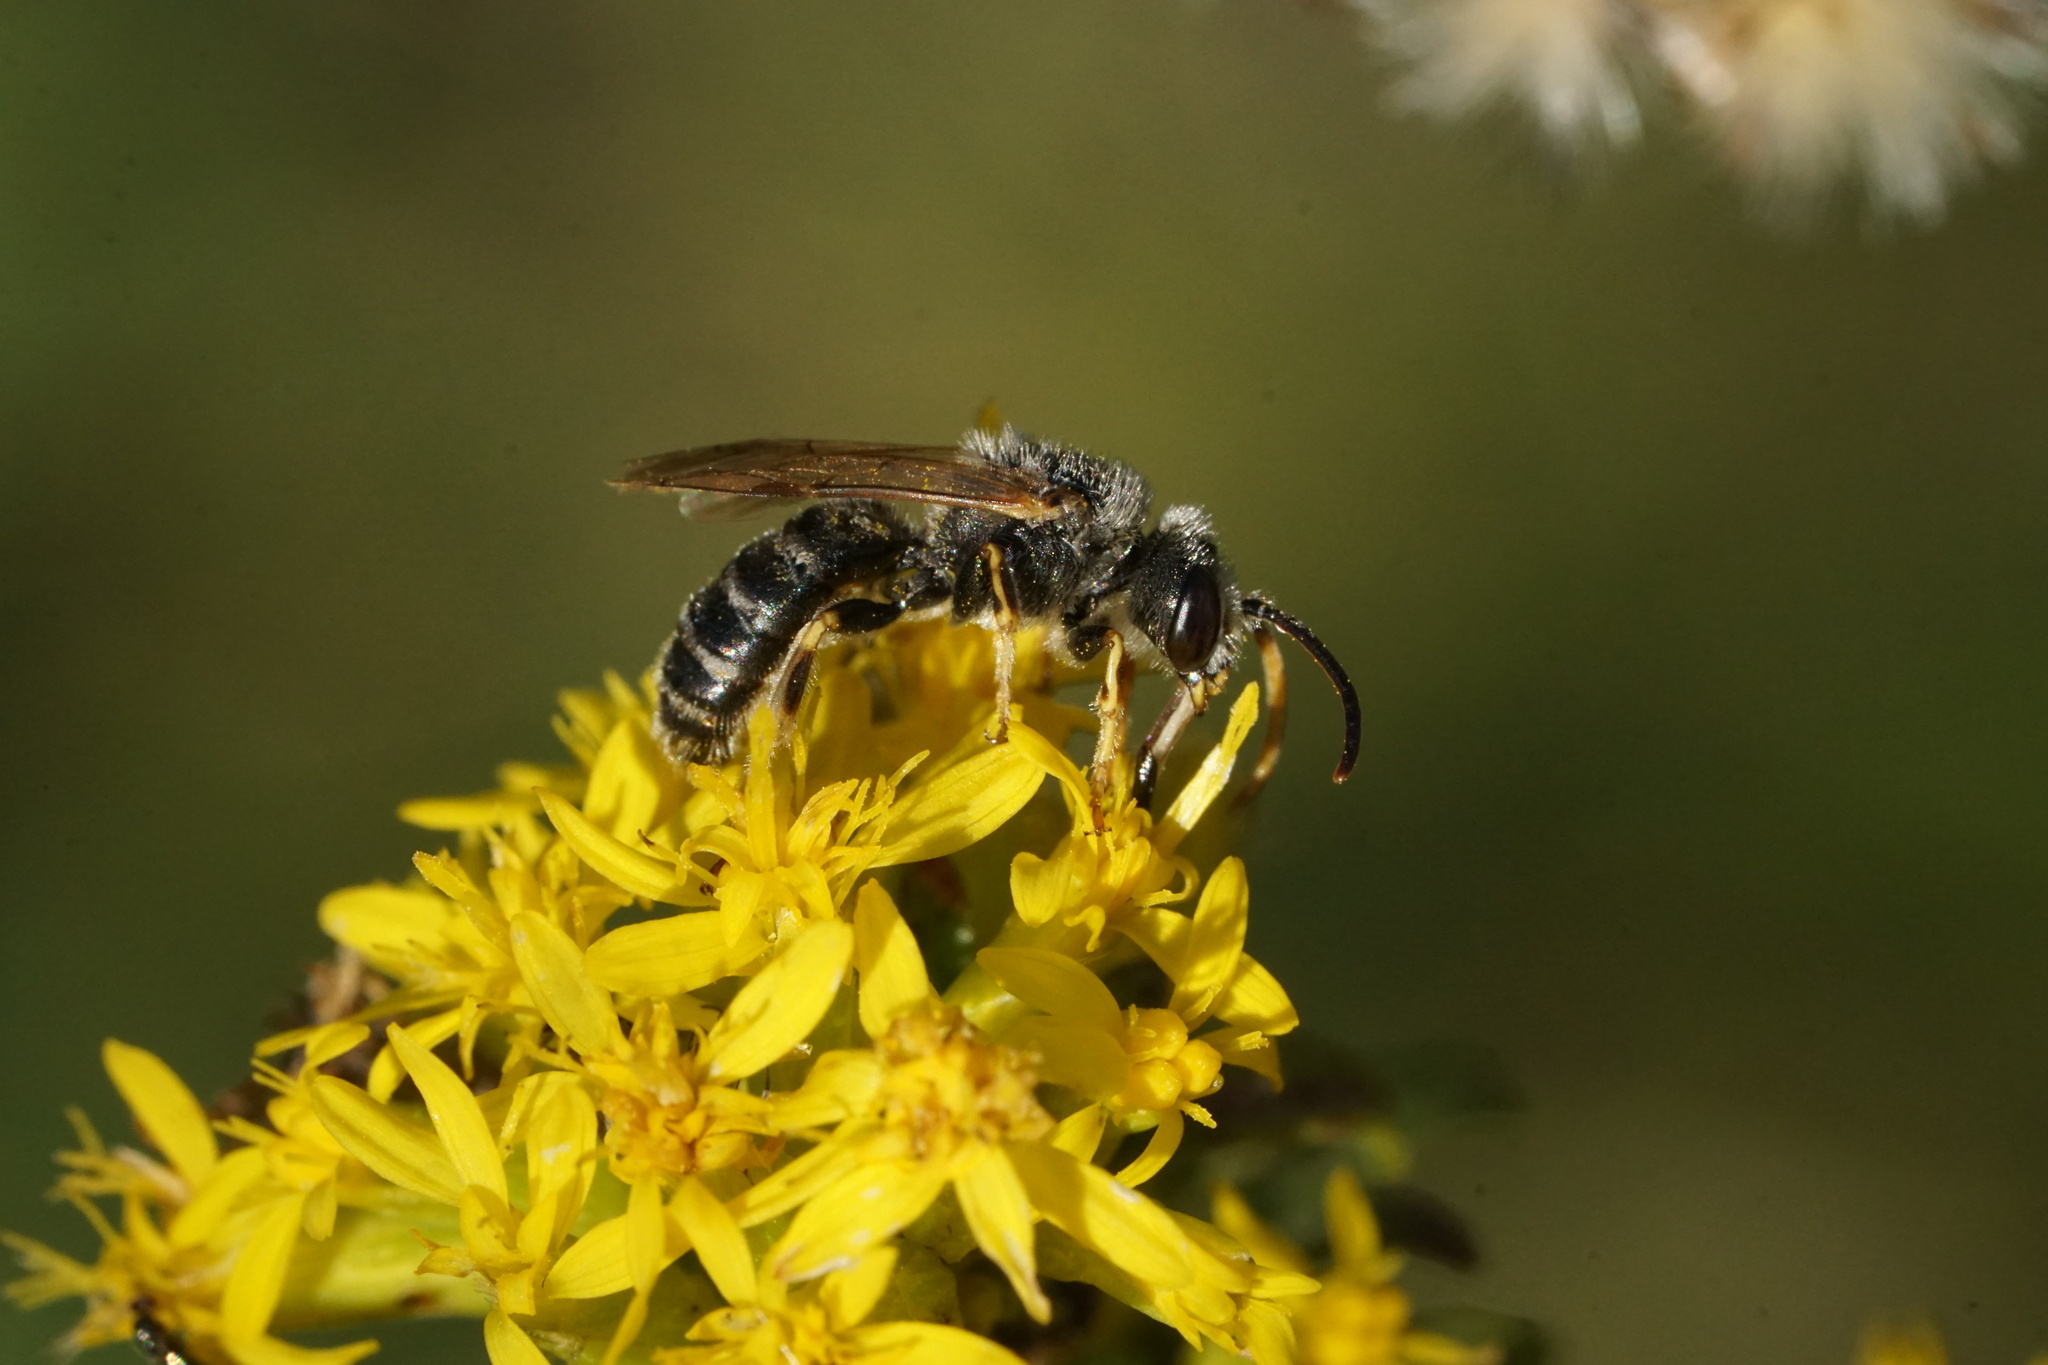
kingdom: Animalia
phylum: Arthropoda
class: Insecta
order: Hymenoptera
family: Halictidae
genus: Halictus
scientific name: Halictus ligatus
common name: Ligated furrow bee
